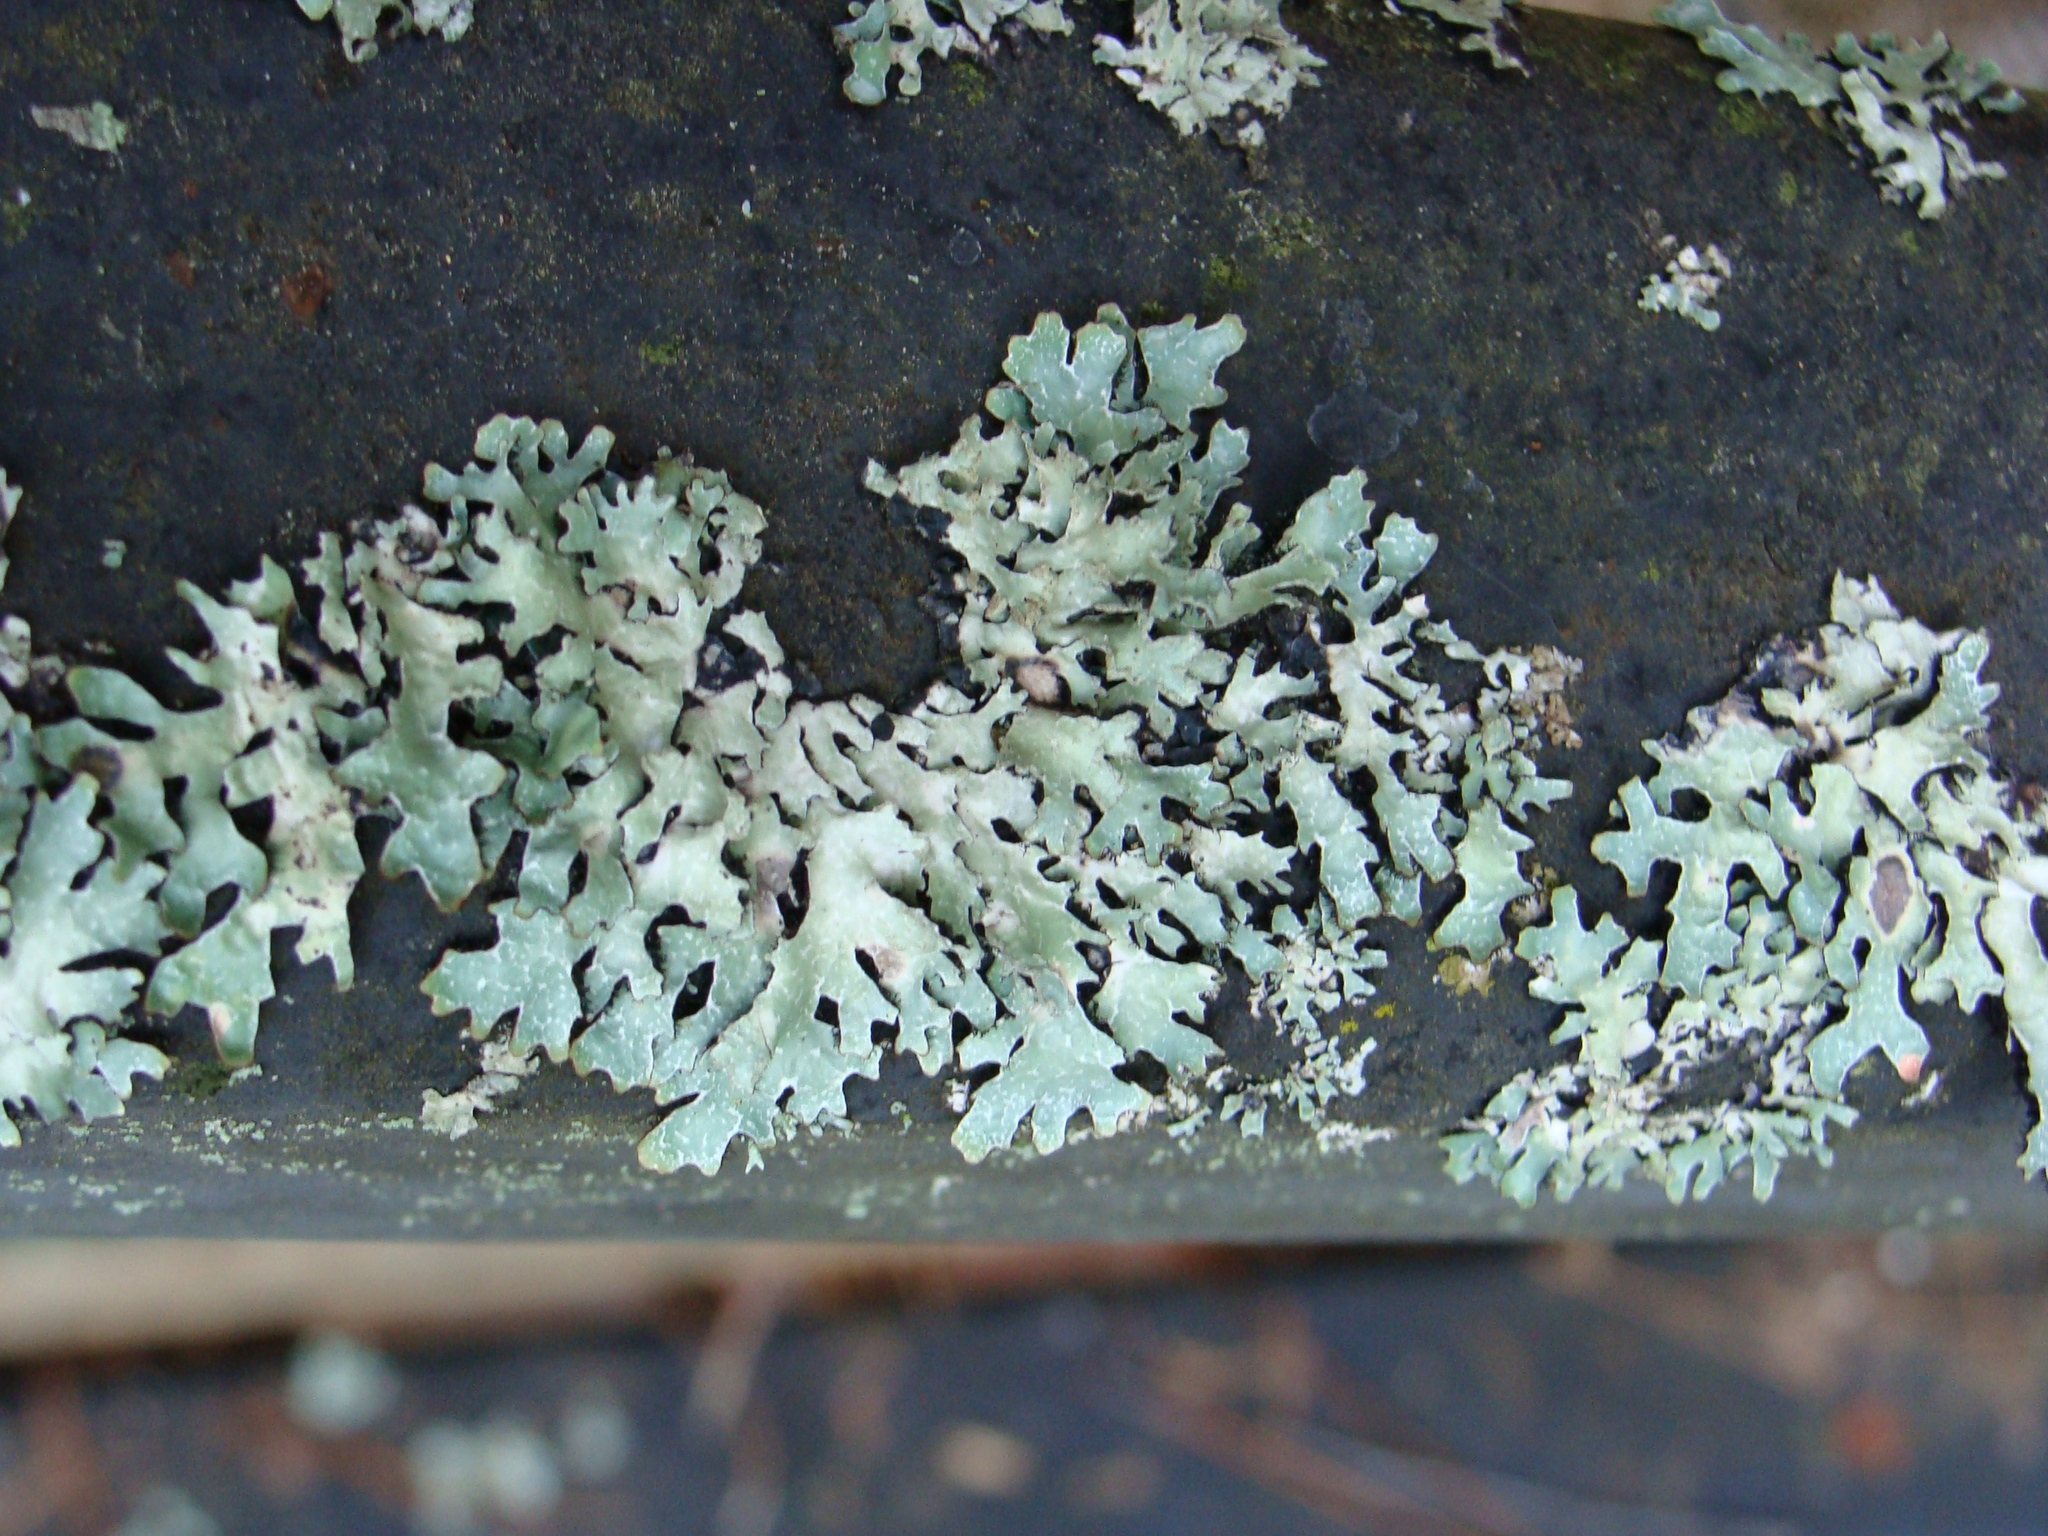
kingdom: Fungi
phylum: Ascomycota
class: Lecanoromycetes
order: Lecanorales
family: Parmeliaceae
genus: Parmelia
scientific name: Parmelia sulcata
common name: Netted shield lichen
